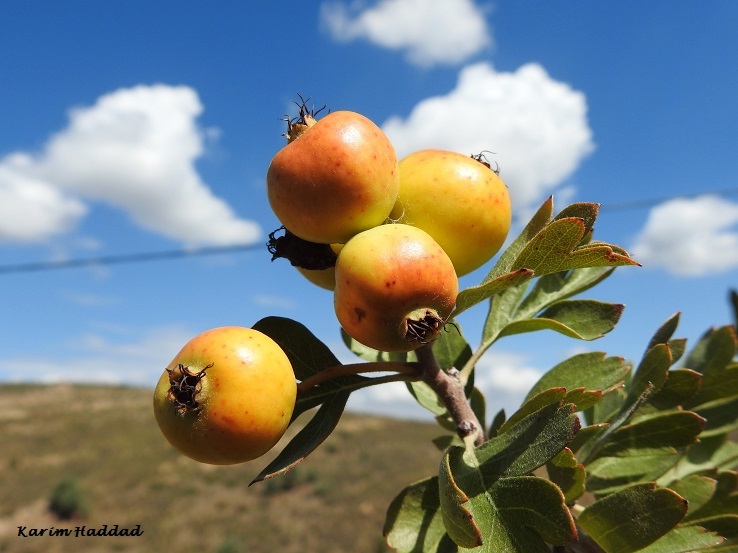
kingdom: Plantae
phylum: Tracheophyta
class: Magnoliopsida
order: Rosales
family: Rosaceae
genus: Crataegus
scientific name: Crataegus azarolus
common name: Azarole
